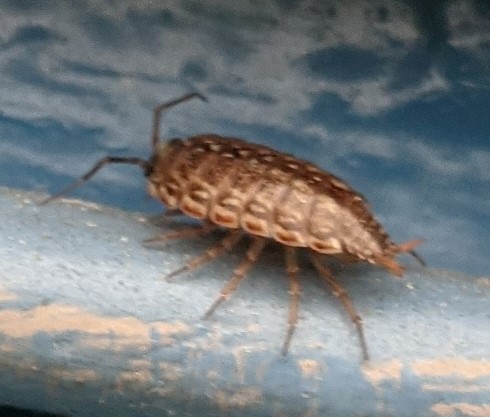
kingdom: Animalia
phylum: Arthropoda
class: Malacostraca
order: Isopoda
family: Philosciidae
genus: Philoscia
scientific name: Philoscia muscorum
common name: Common striped woodlouse
